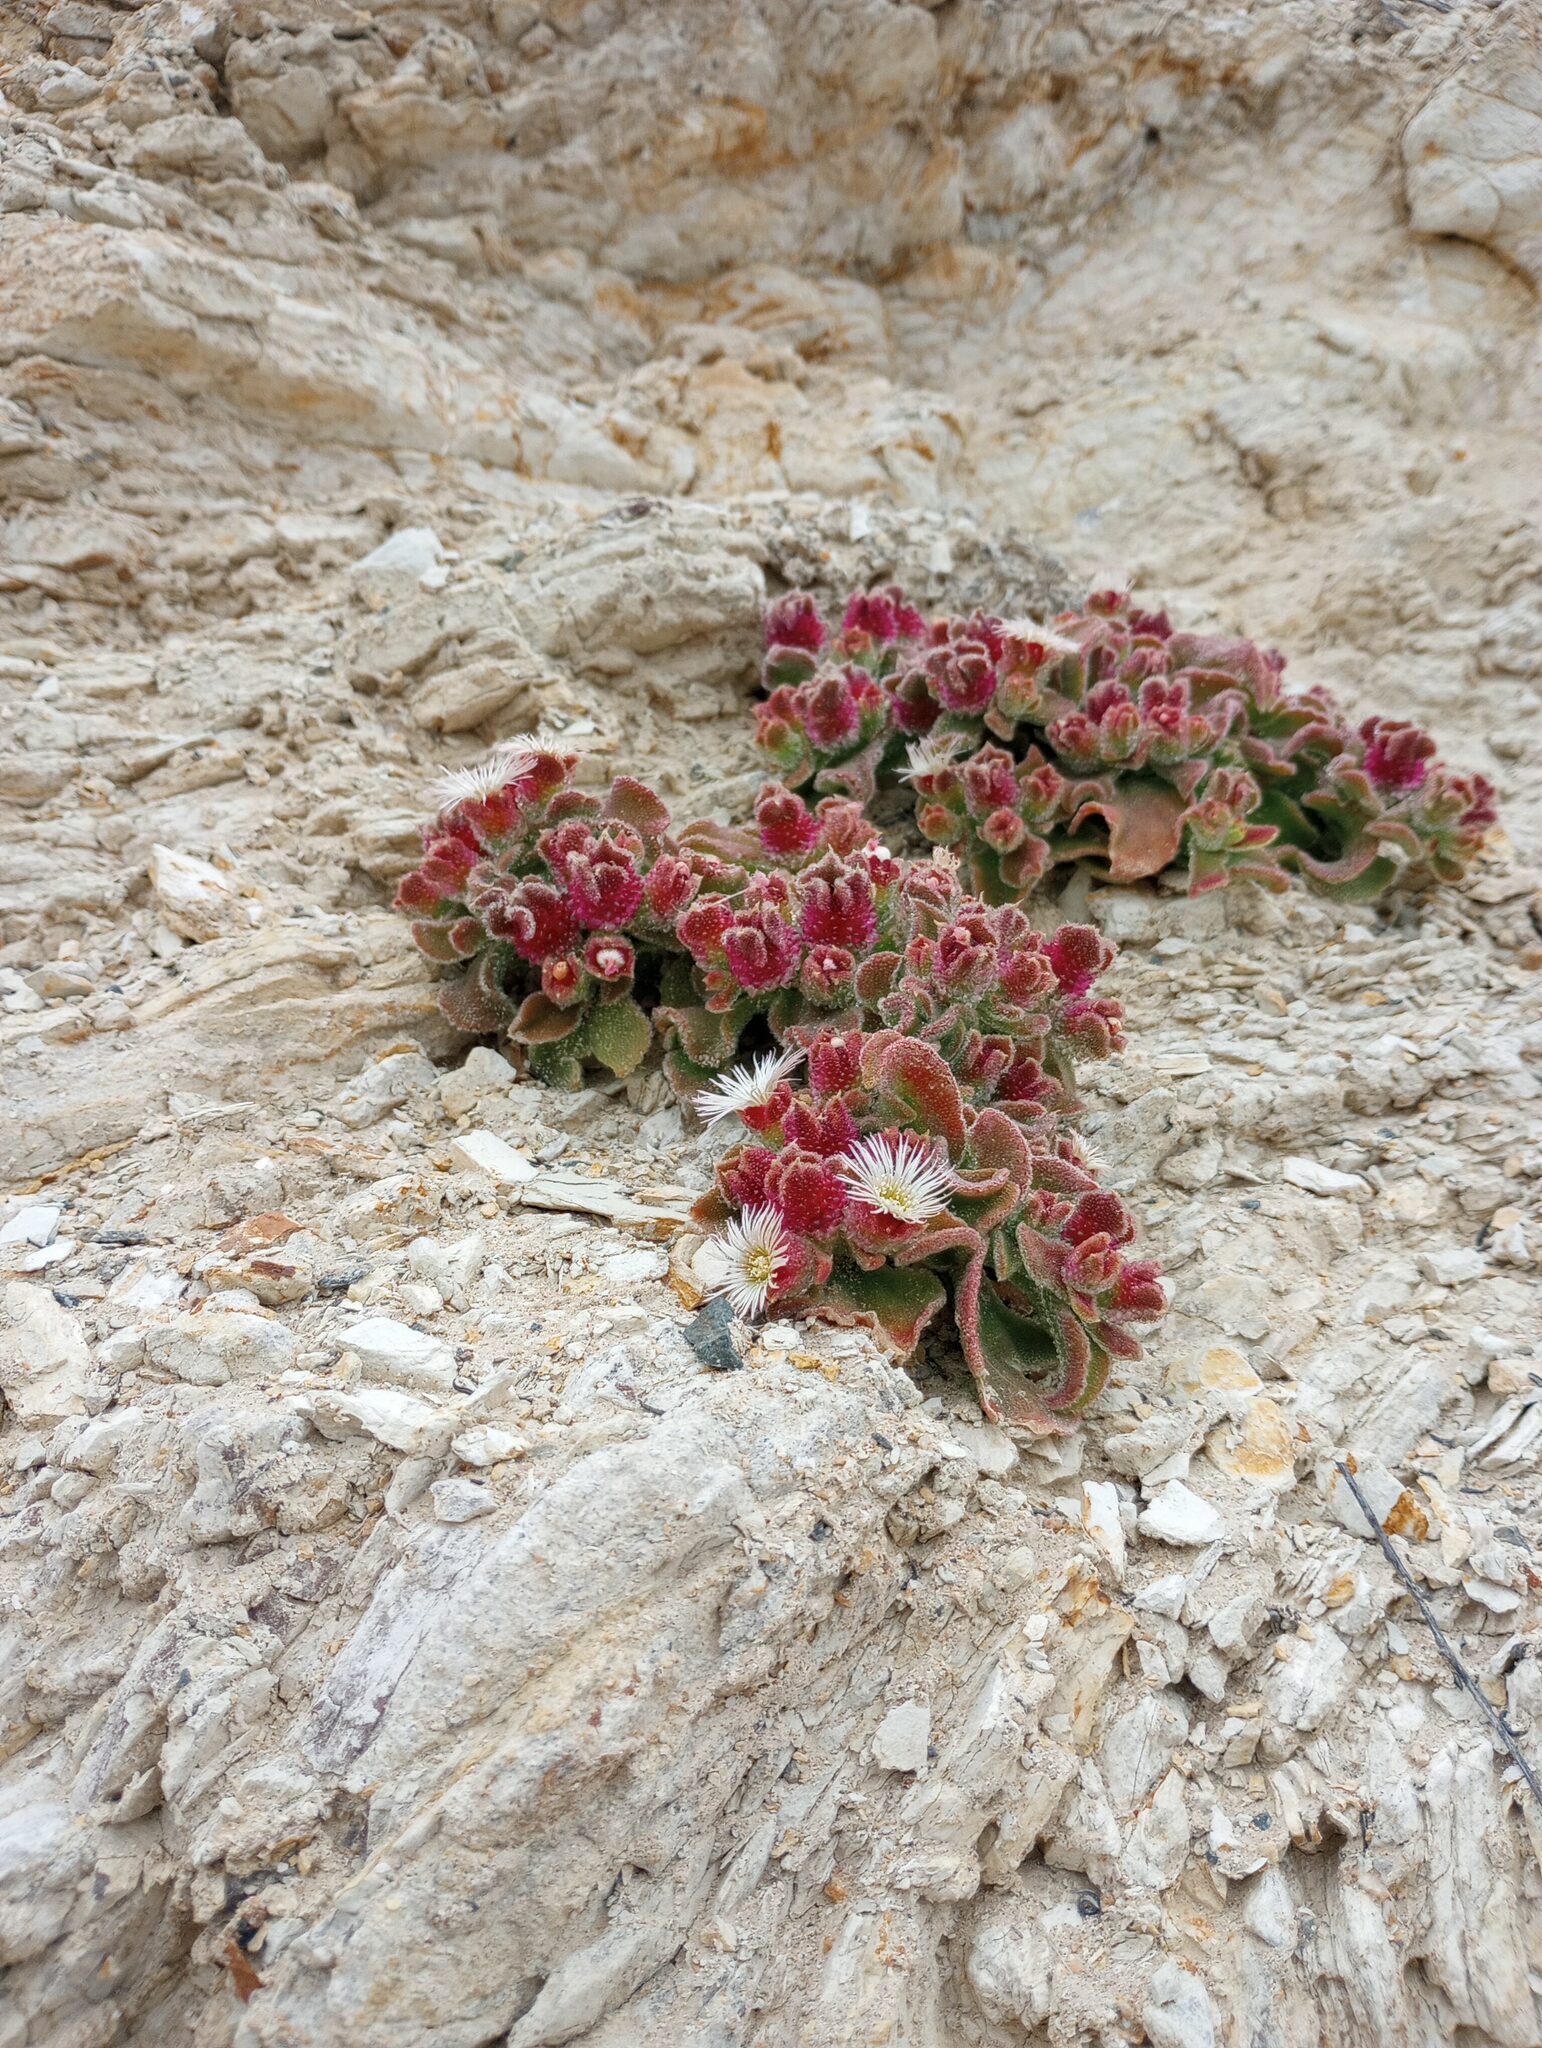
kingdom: Plantae
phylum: Tracheophyta
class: Magnoliopsida
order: Caryophyllales
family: Aizoaceae
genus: Mesembryanthemum
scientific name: Mesembryanthemum crystallinum
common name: Common iceplant
